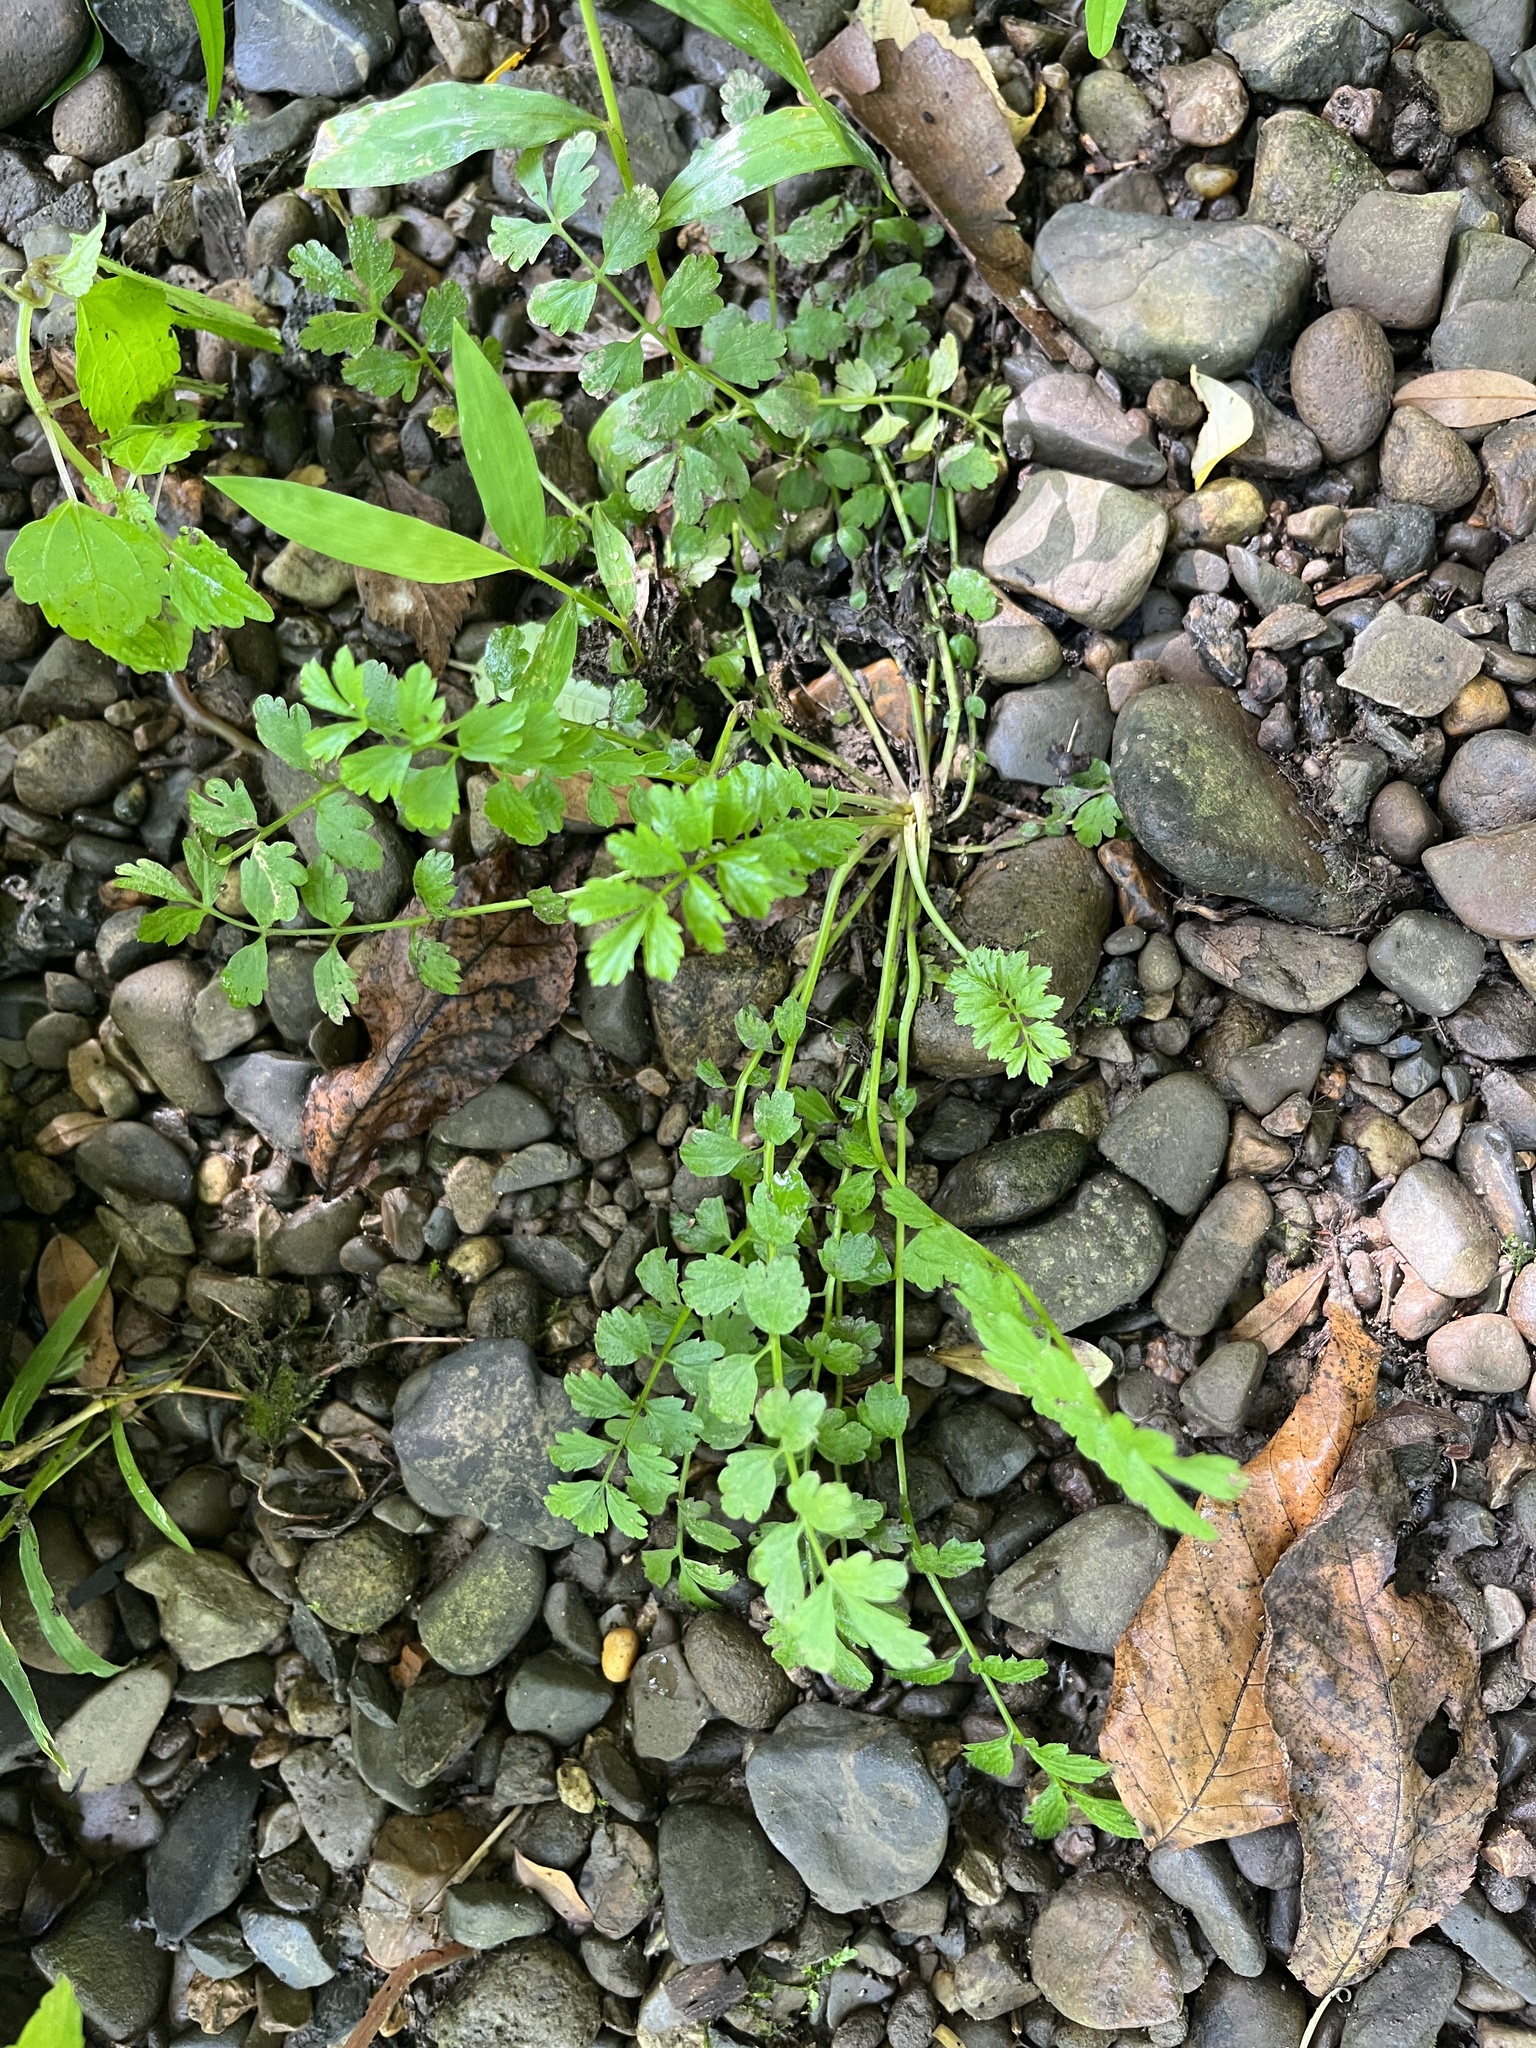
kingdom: Plantae
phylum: Tracheophyta
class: Magnoliopsida
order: Brassicales
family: Brassicaceae
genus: Cardamine
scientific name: Cardamine impatiens
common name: Narrow-leaved bitter-cress
